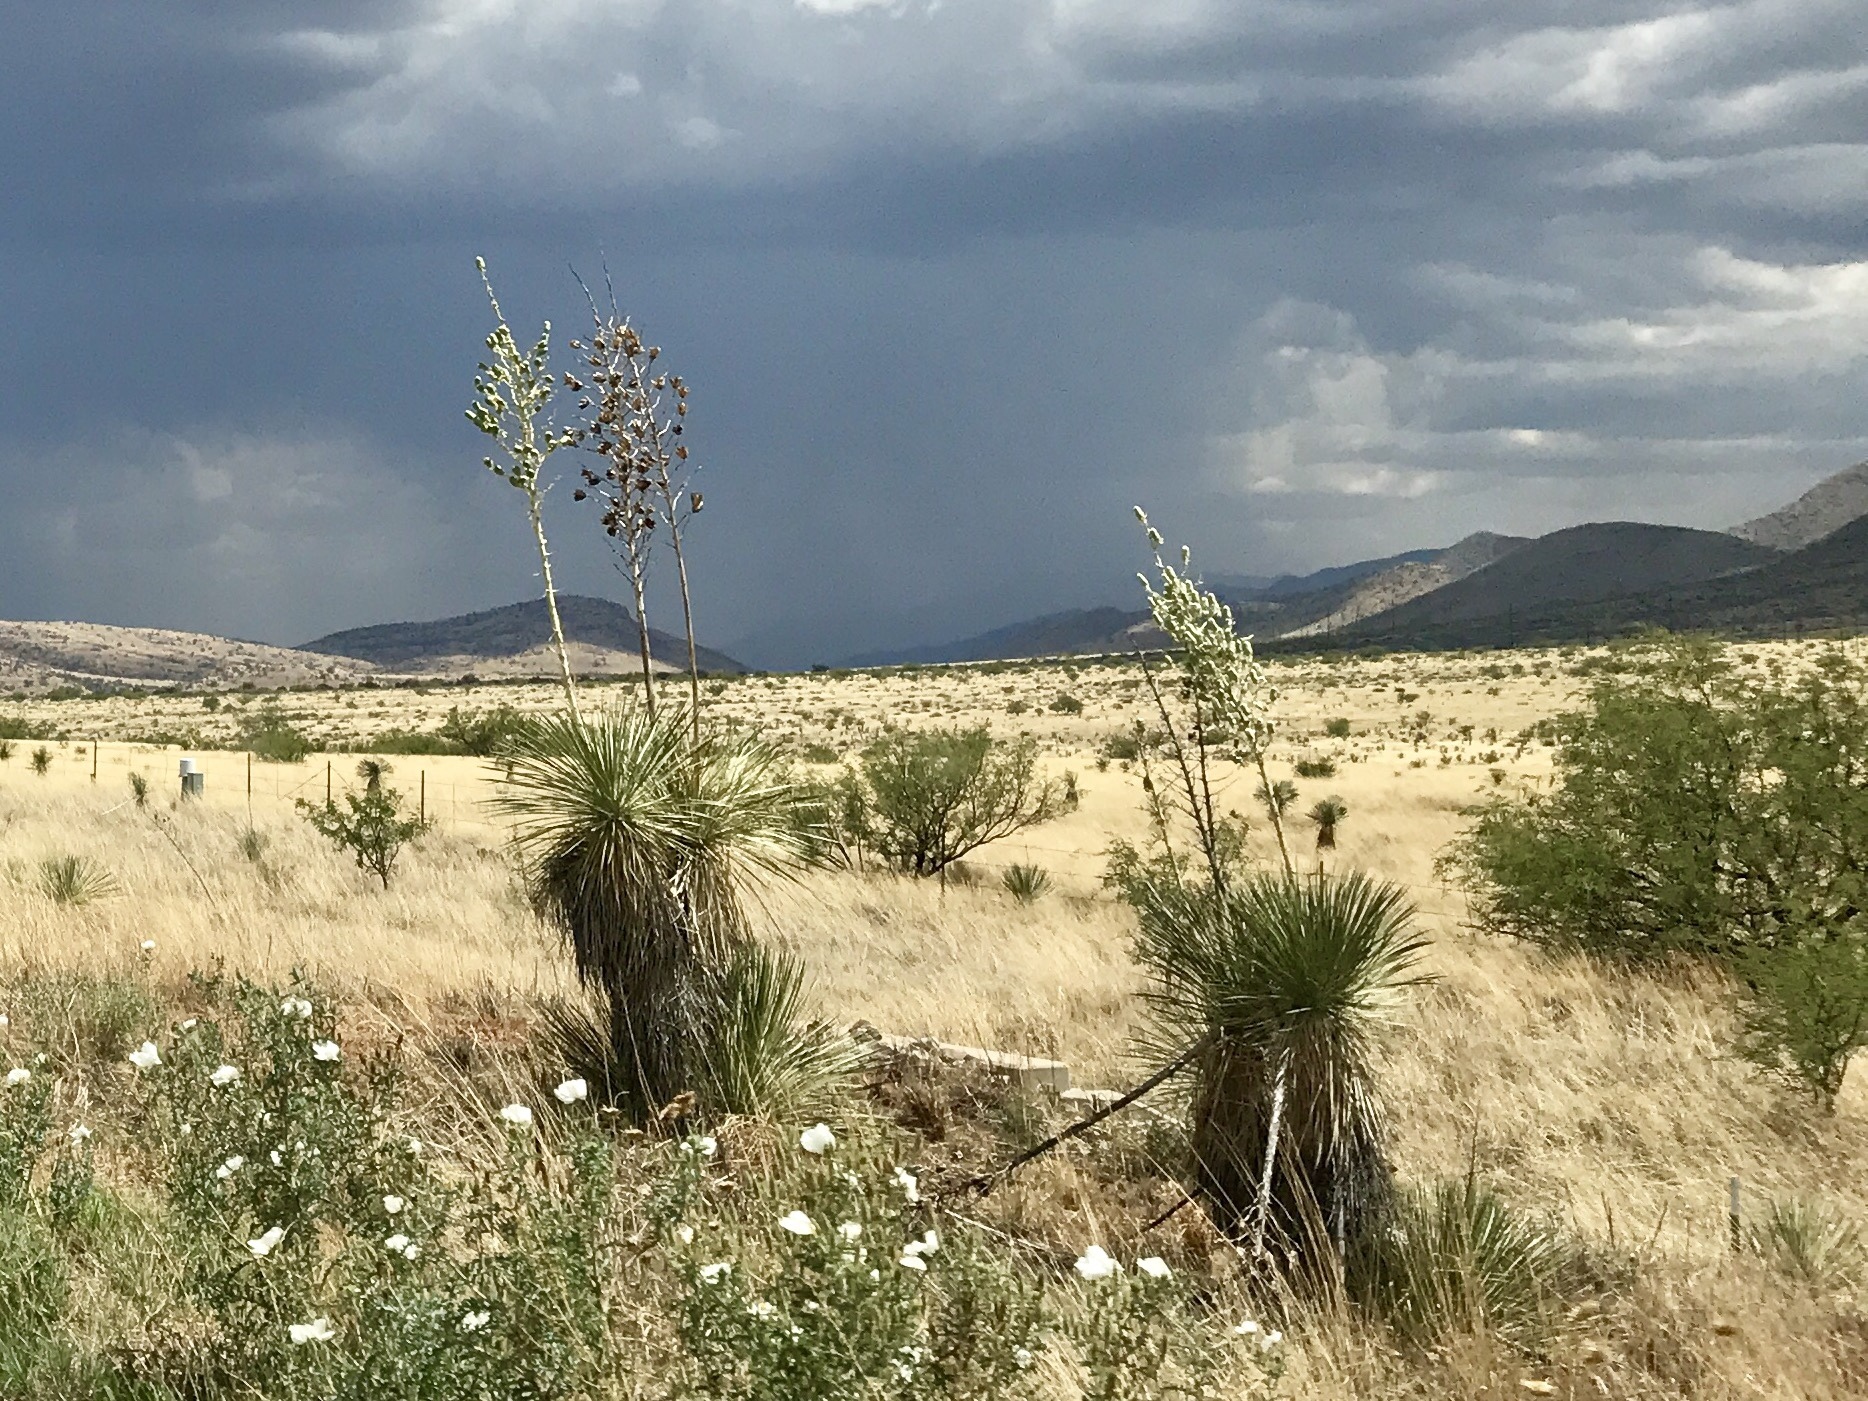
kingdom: Plantae
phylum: Tracheophyta
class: Liliopsida
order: Asparagales
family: Asparagaceae
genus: Yucca
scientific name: Yucca elata
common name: Palmella
